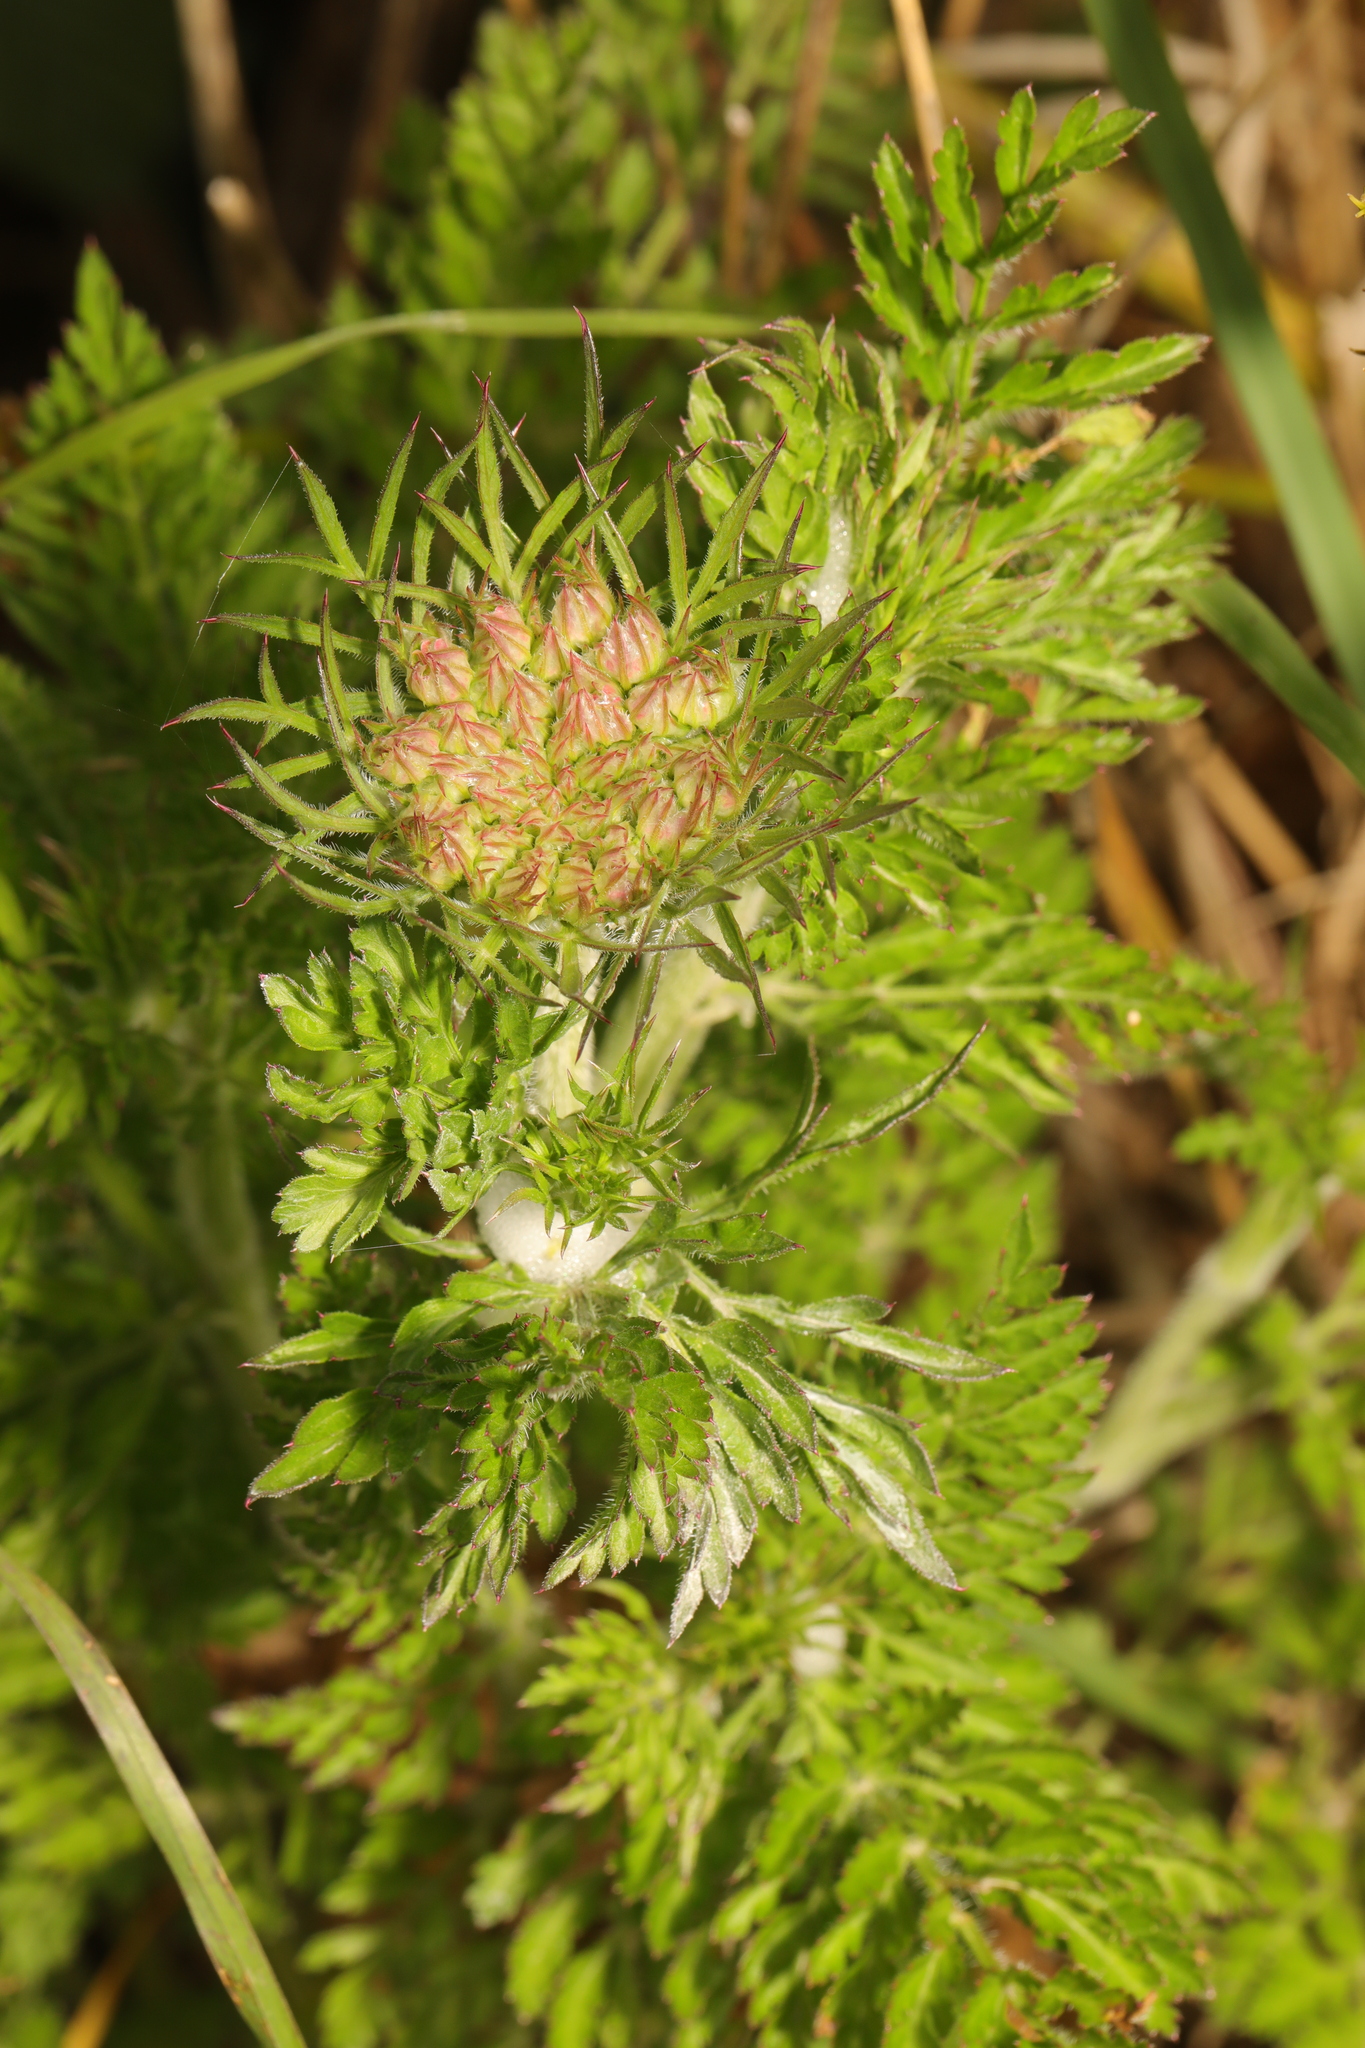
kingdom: Plantae
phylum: Tracheophyta
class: Magnoliopsida
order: Apiales
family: Apiaceae
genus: Daucus
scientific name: Daucus carota
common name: Wild carrot
